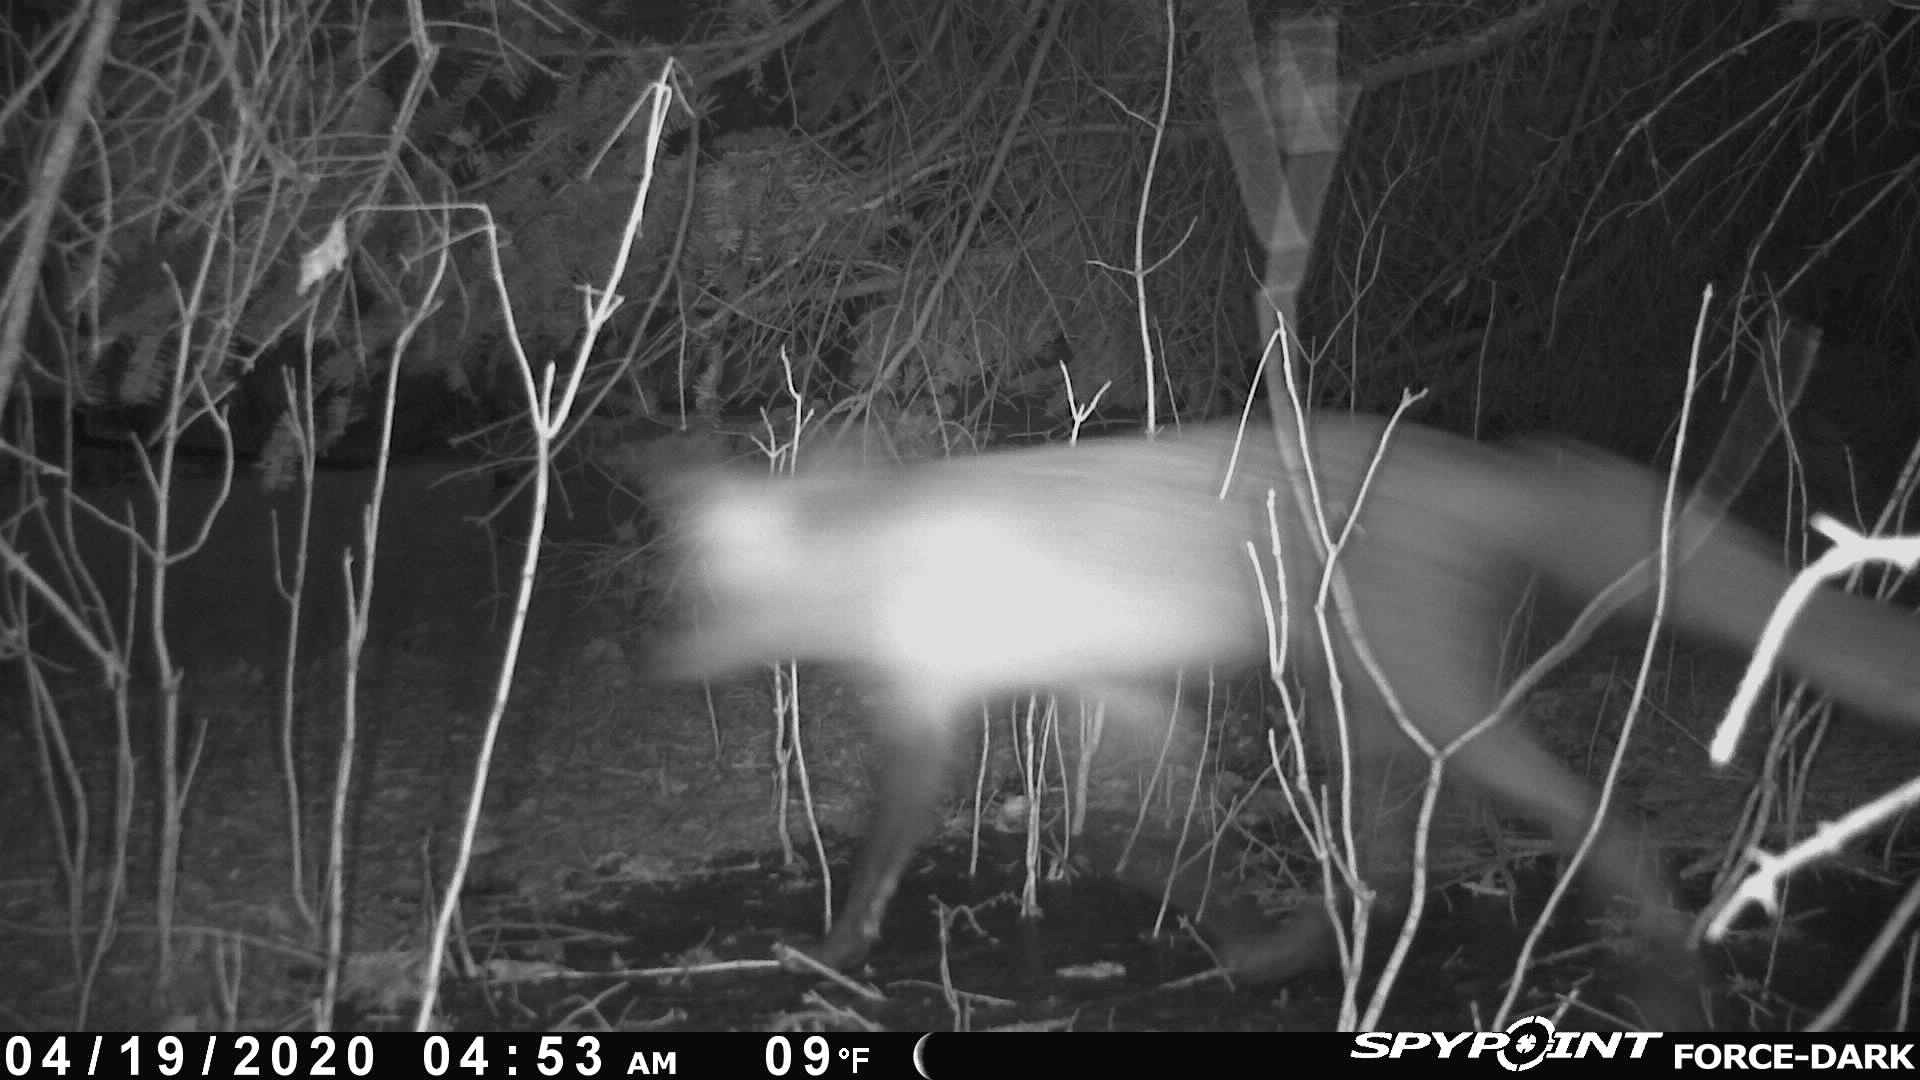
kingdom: Animalia
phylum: Chordata
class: Mammalia
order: Carnivora
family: Canidae
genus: Vulpes
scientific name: Vulpes vulpes
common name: Red fox
